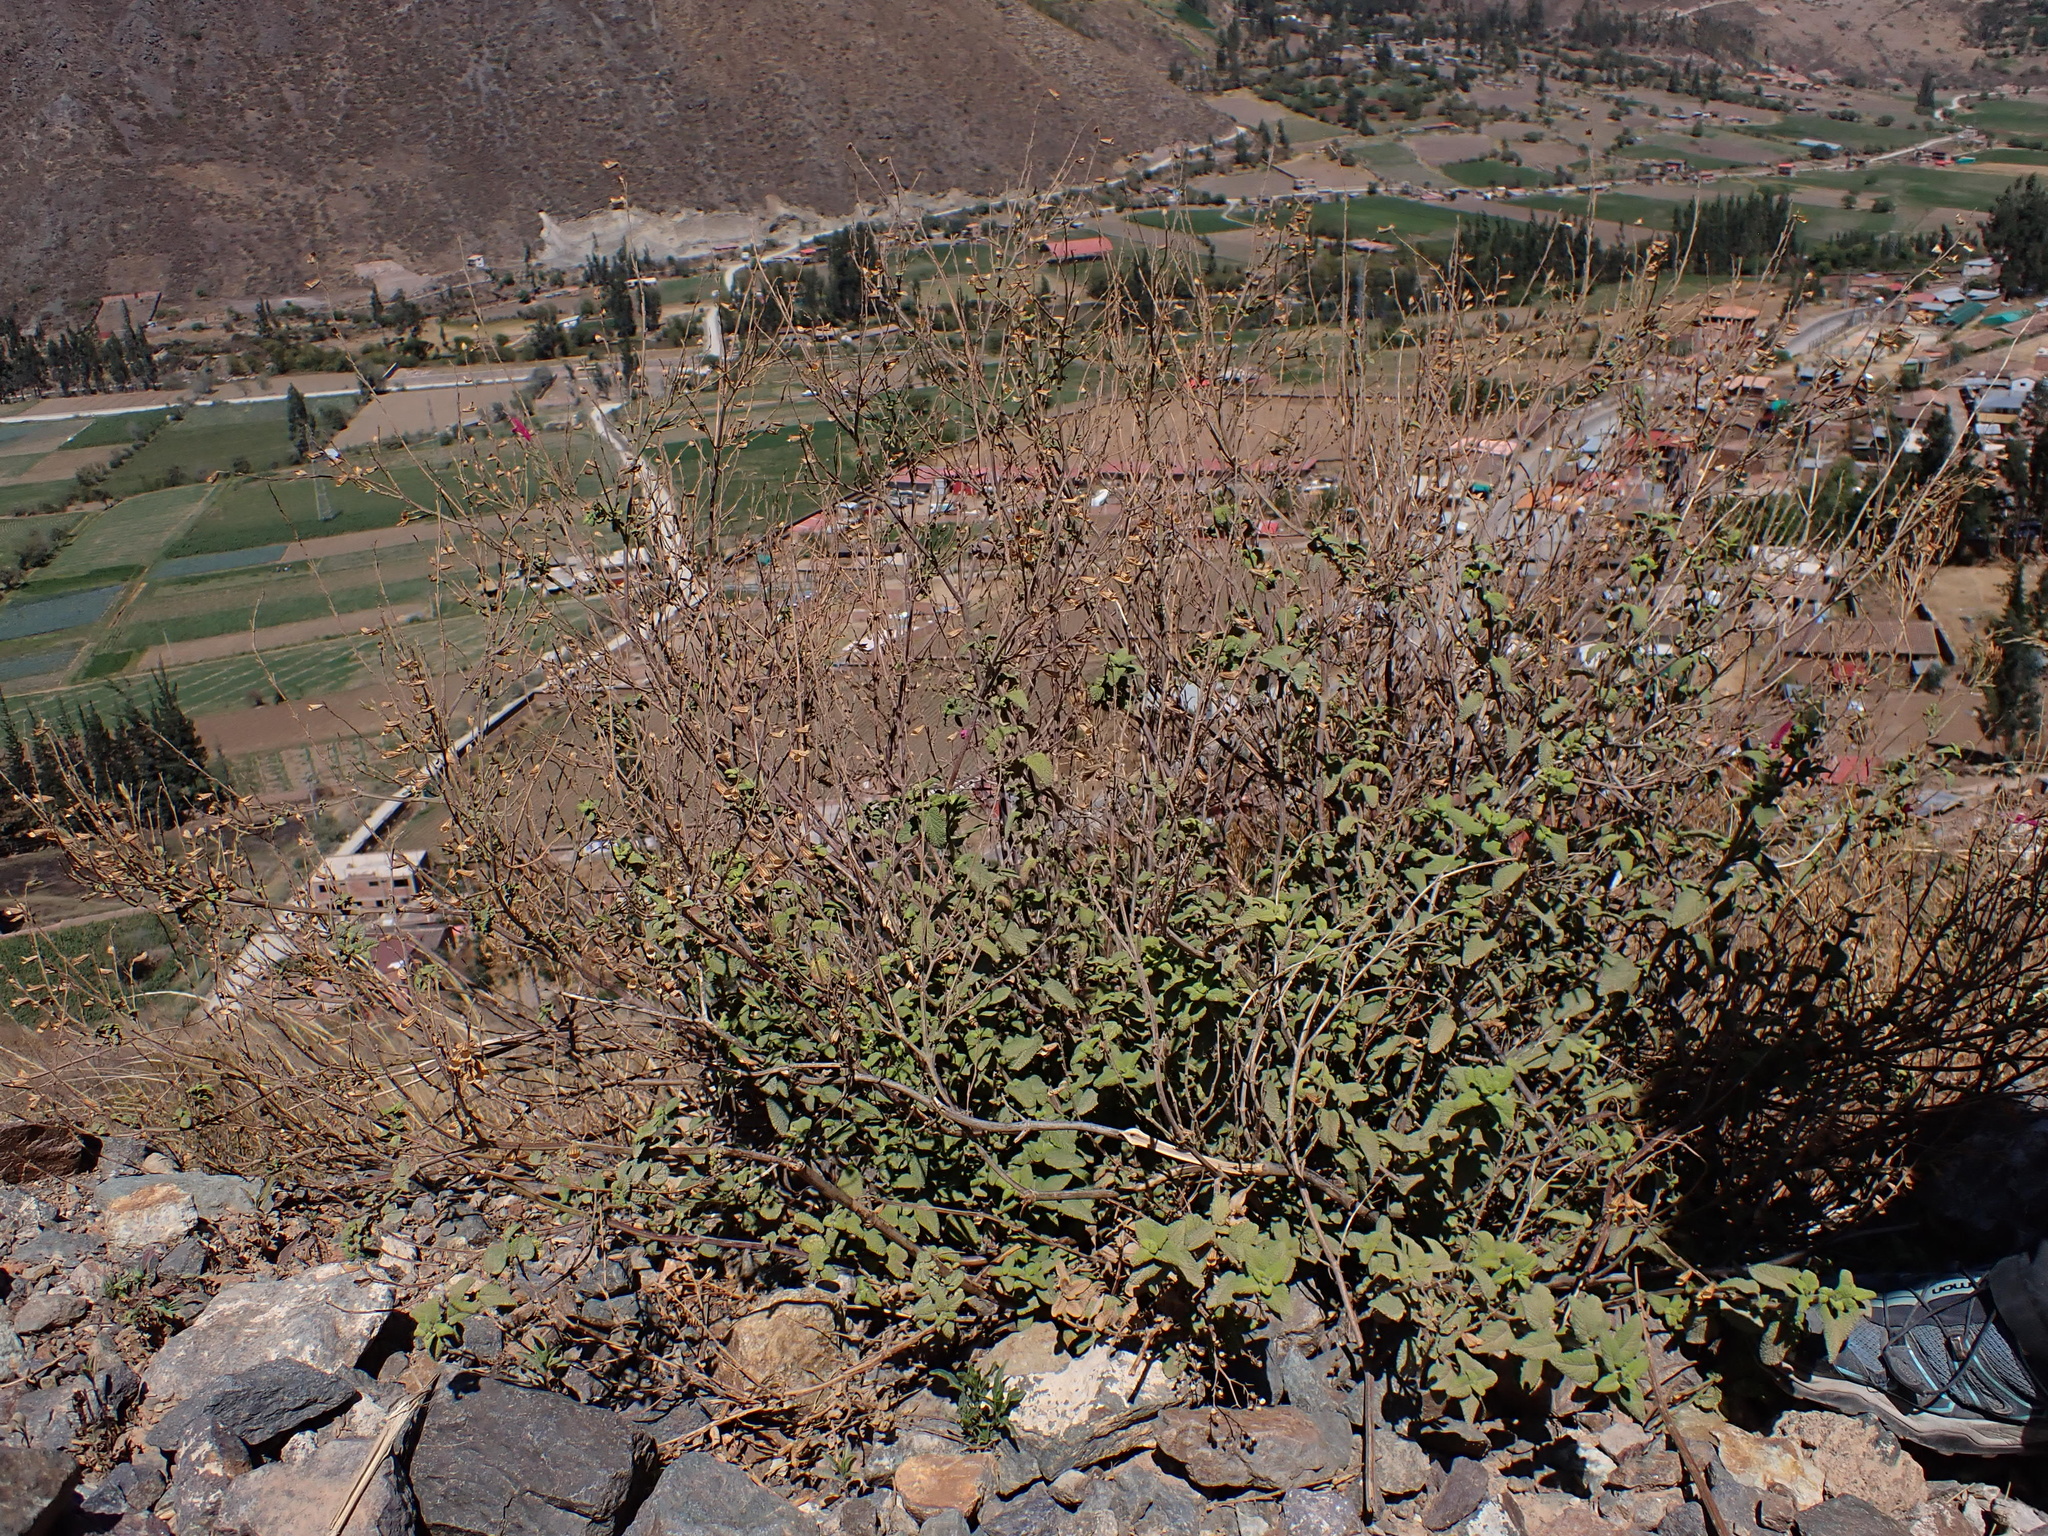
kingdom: Plantae
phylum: Tracheophyta
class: Magnoliopsida
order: Lamiales
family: Lamiaceae
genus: Salvia
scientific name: Salvia oppositiflora
